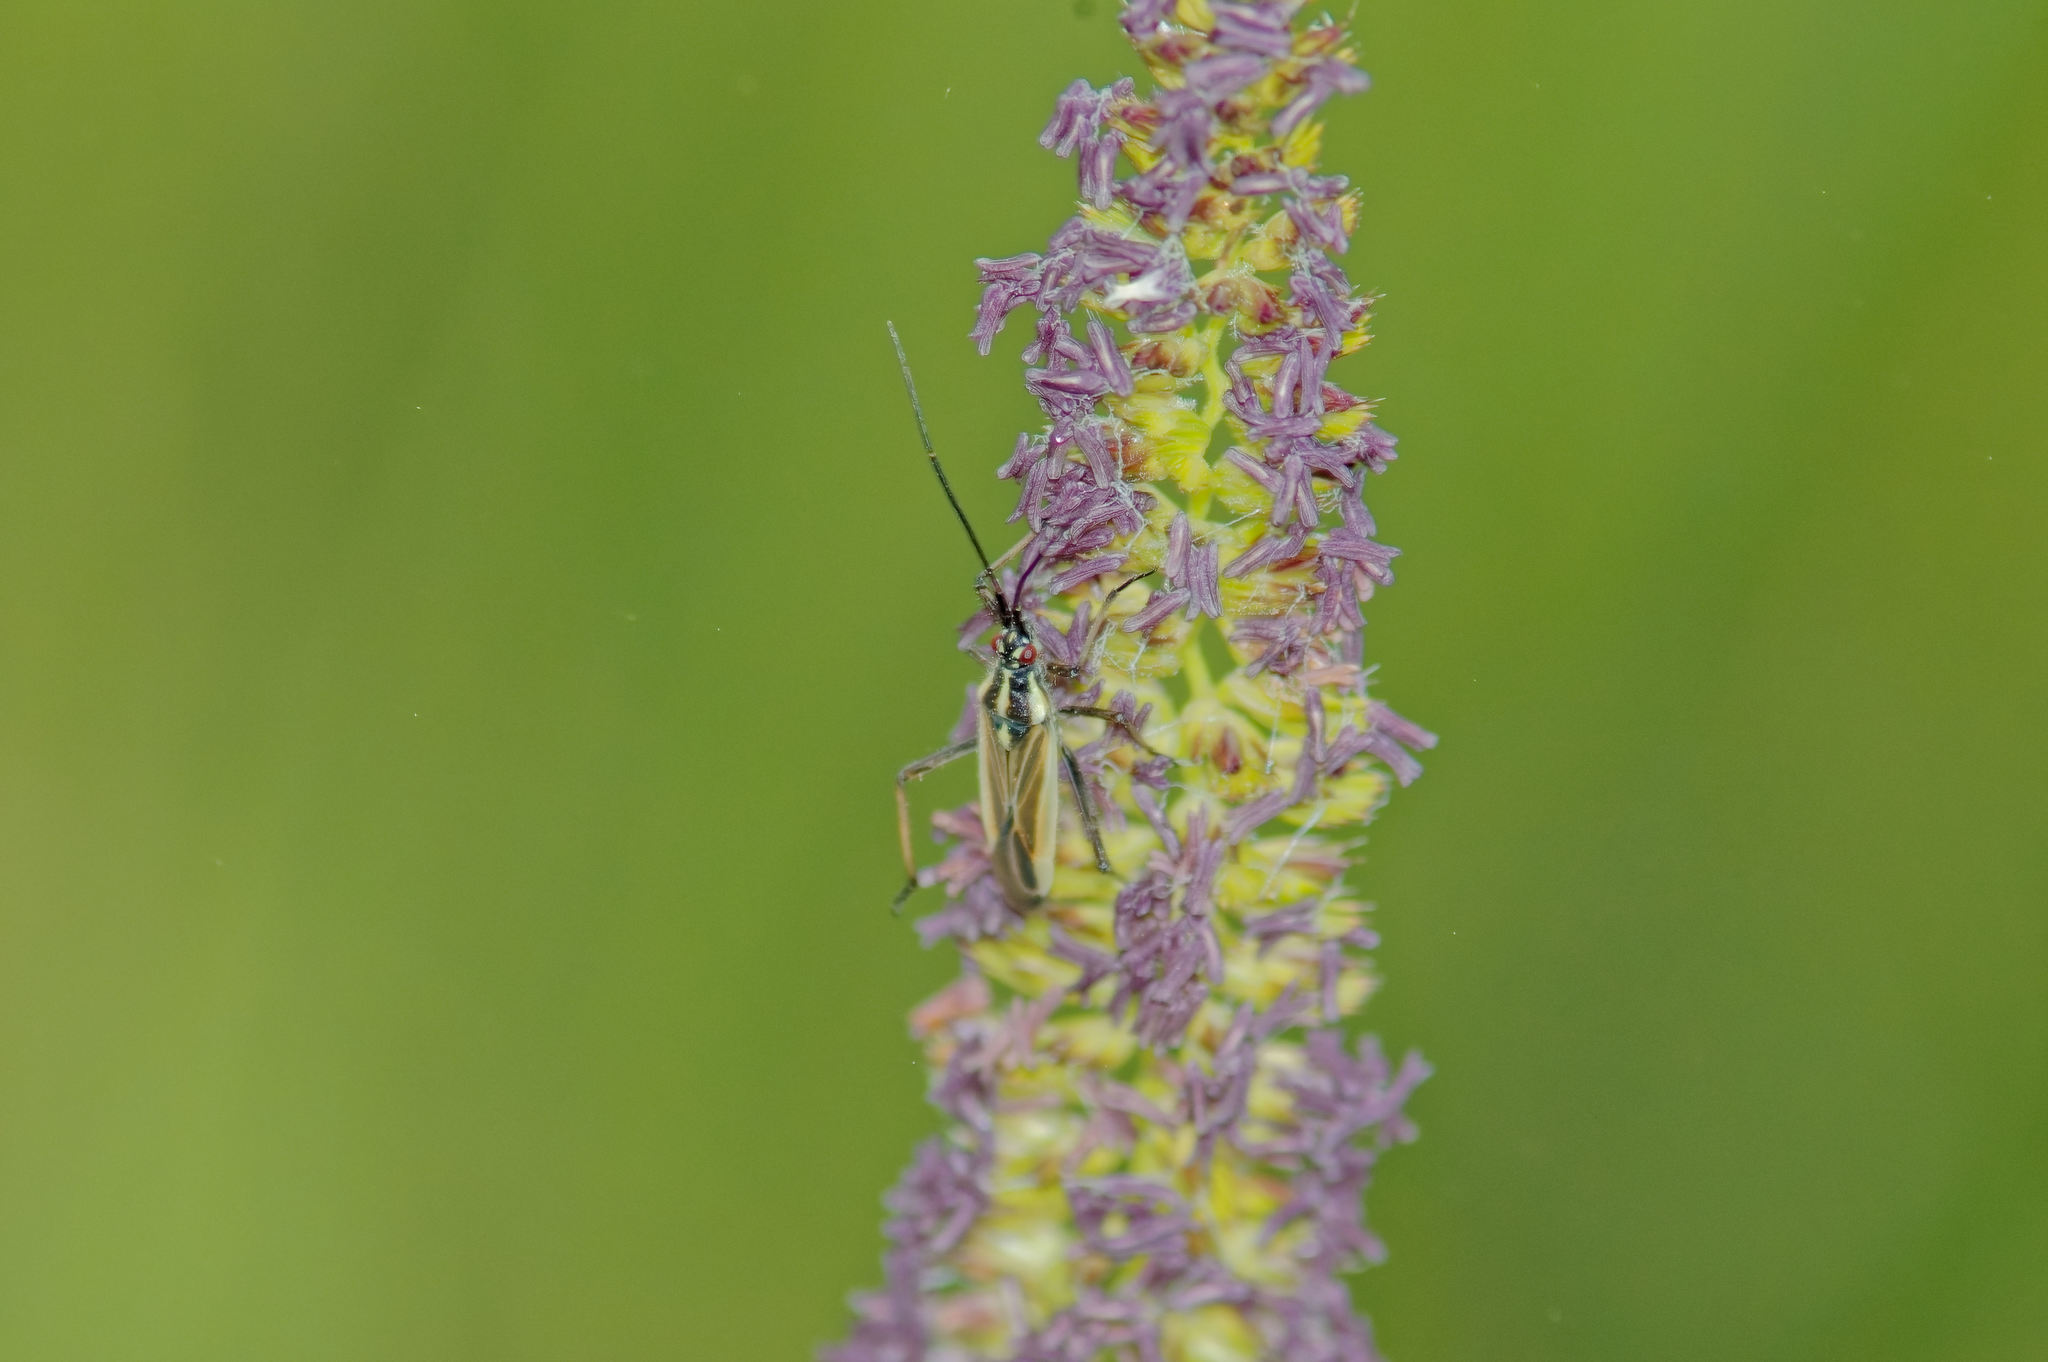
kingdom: Animalia
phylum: Arthropoda
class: Insecta
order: Hemiptera
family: Miridae
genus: Leptopterna
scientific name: Leptopterna dolabrata
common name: Meadow plant bug
